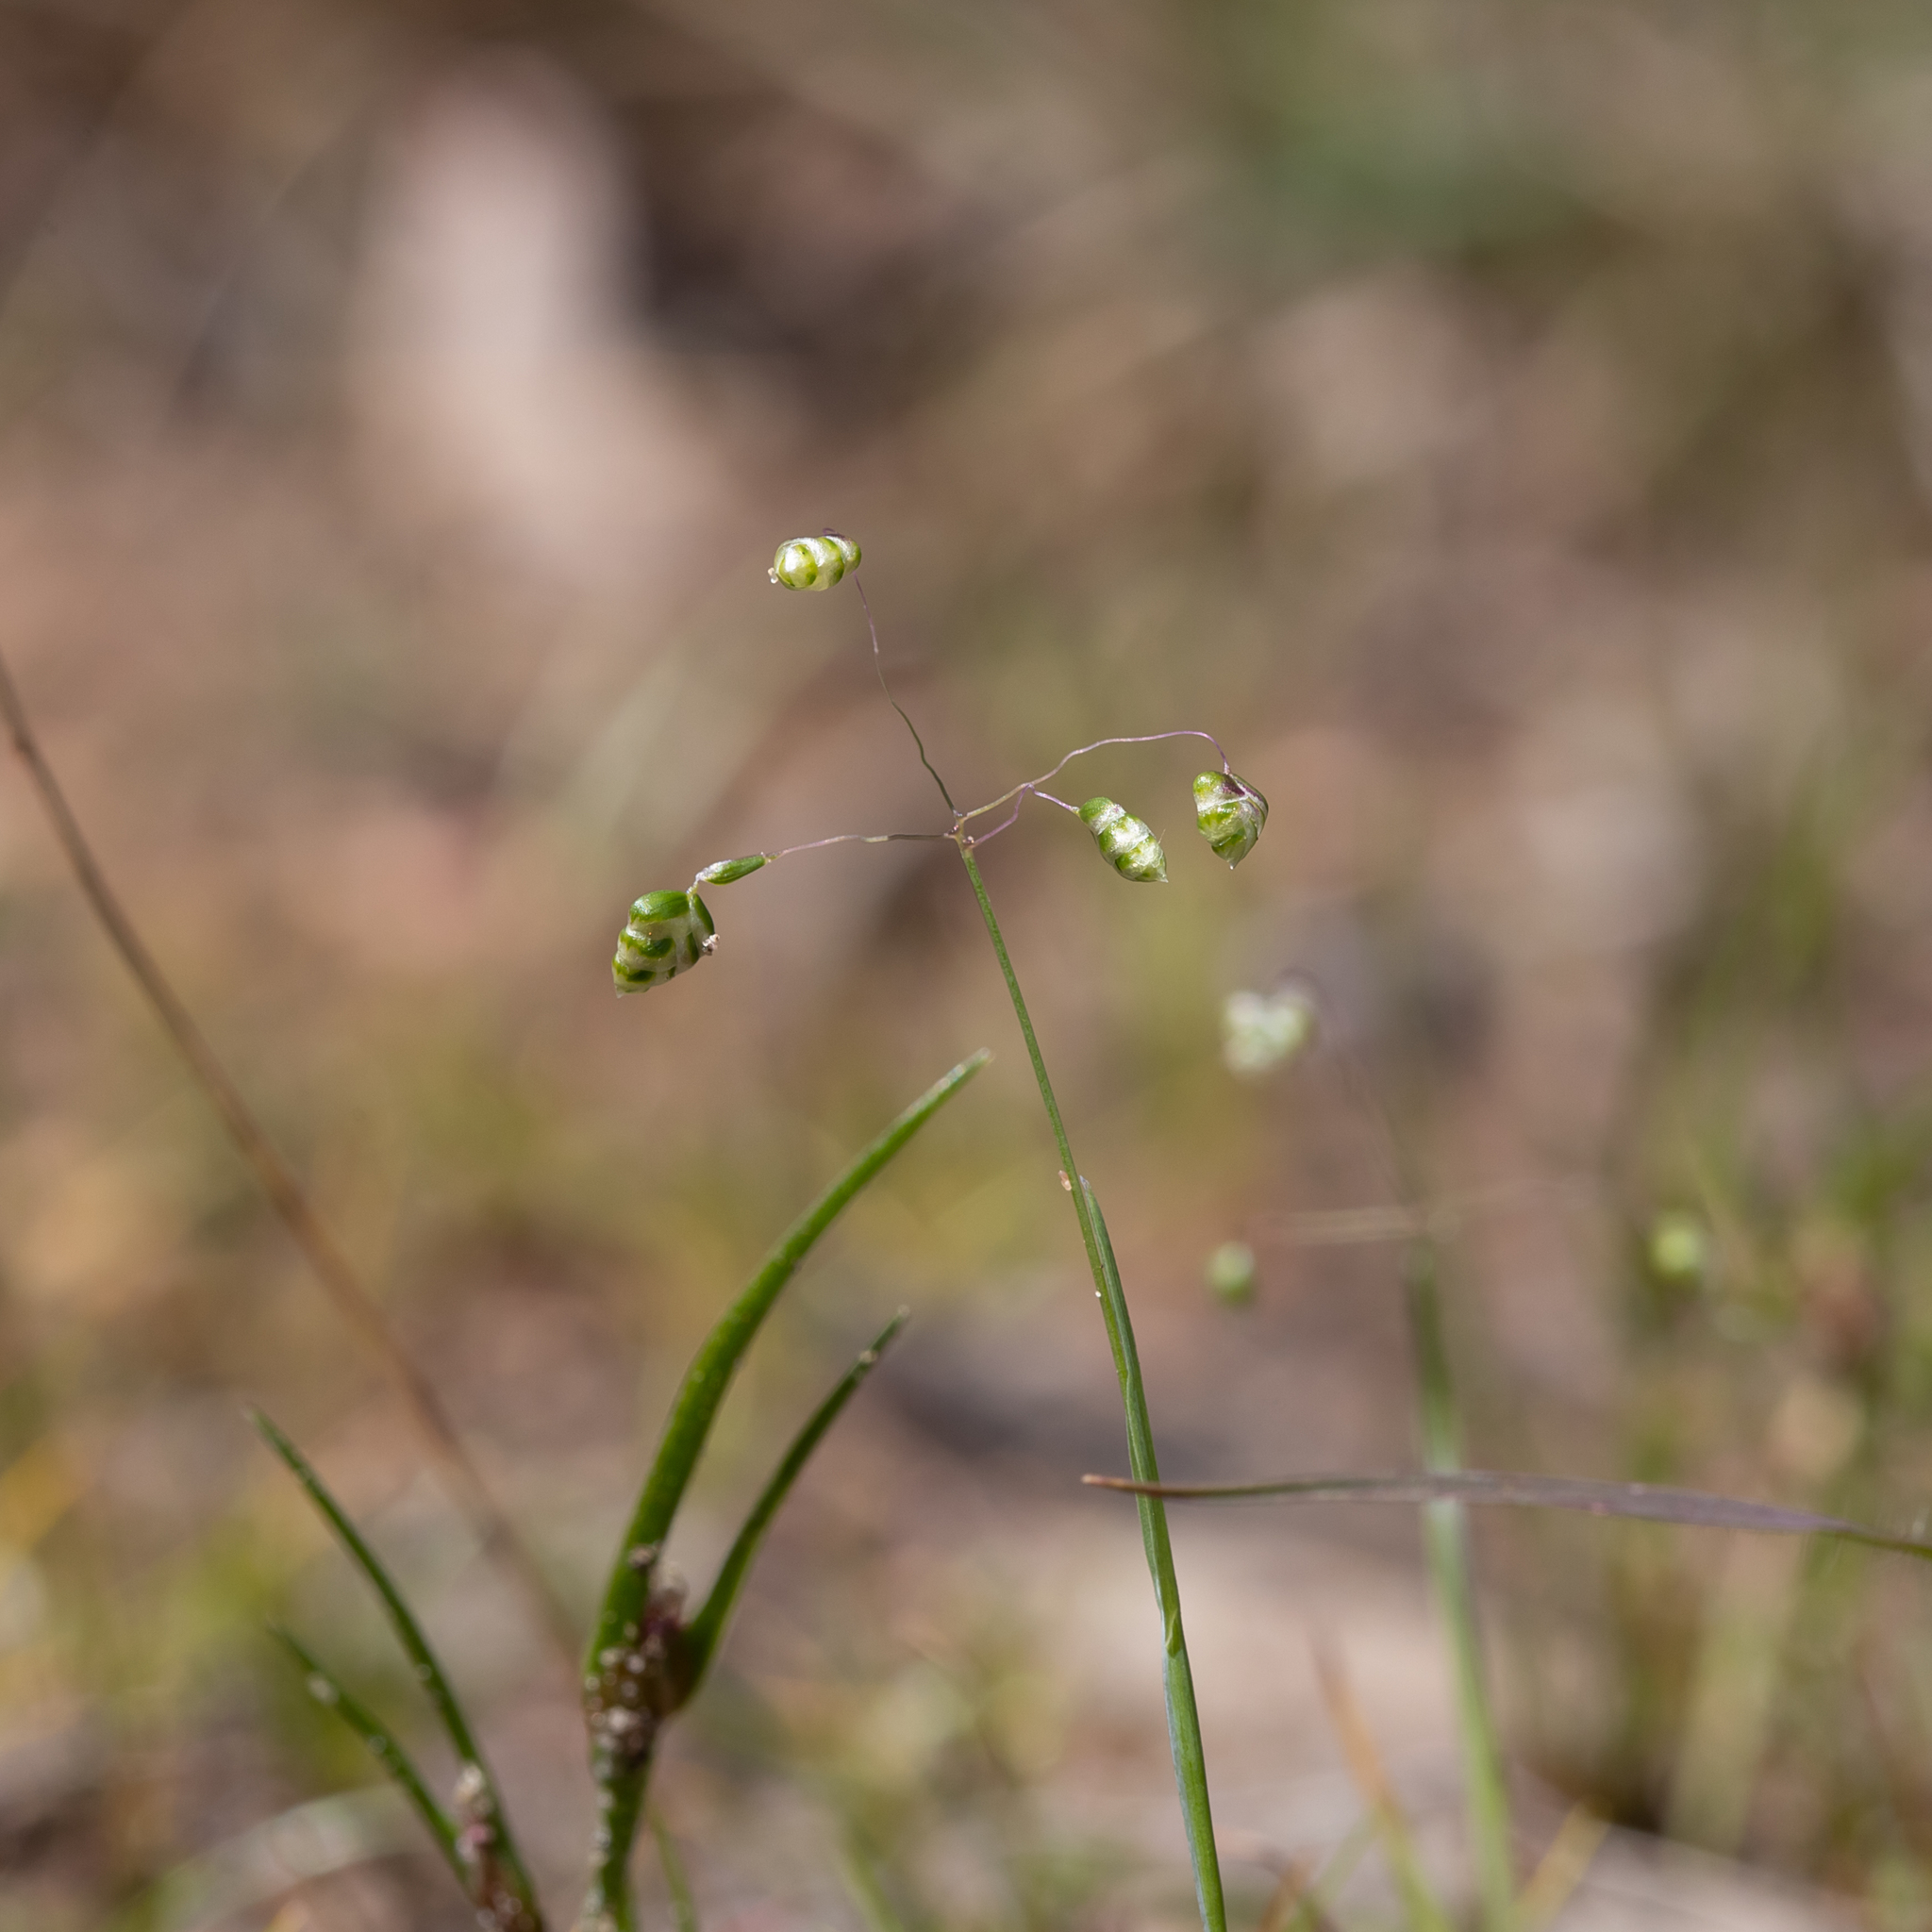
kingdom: Plantae
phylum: Tracheophyta
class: Liliopsida
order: Poales
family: Poaceae
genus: Briza
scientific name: Briza minor
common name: Lesser quaking-grass
